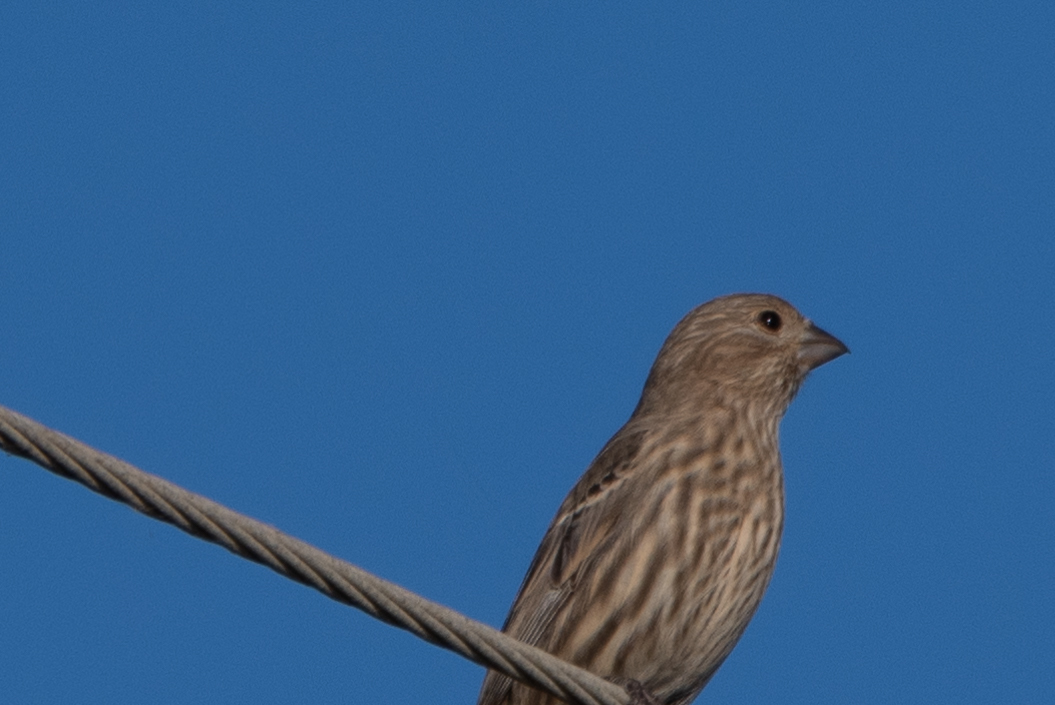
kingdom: Animalia
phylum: Chordata
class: Aves
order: Passeriformes
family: Fringillidae
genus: Haemorhous
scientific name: Haemorhous mexicanus
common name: House finch
